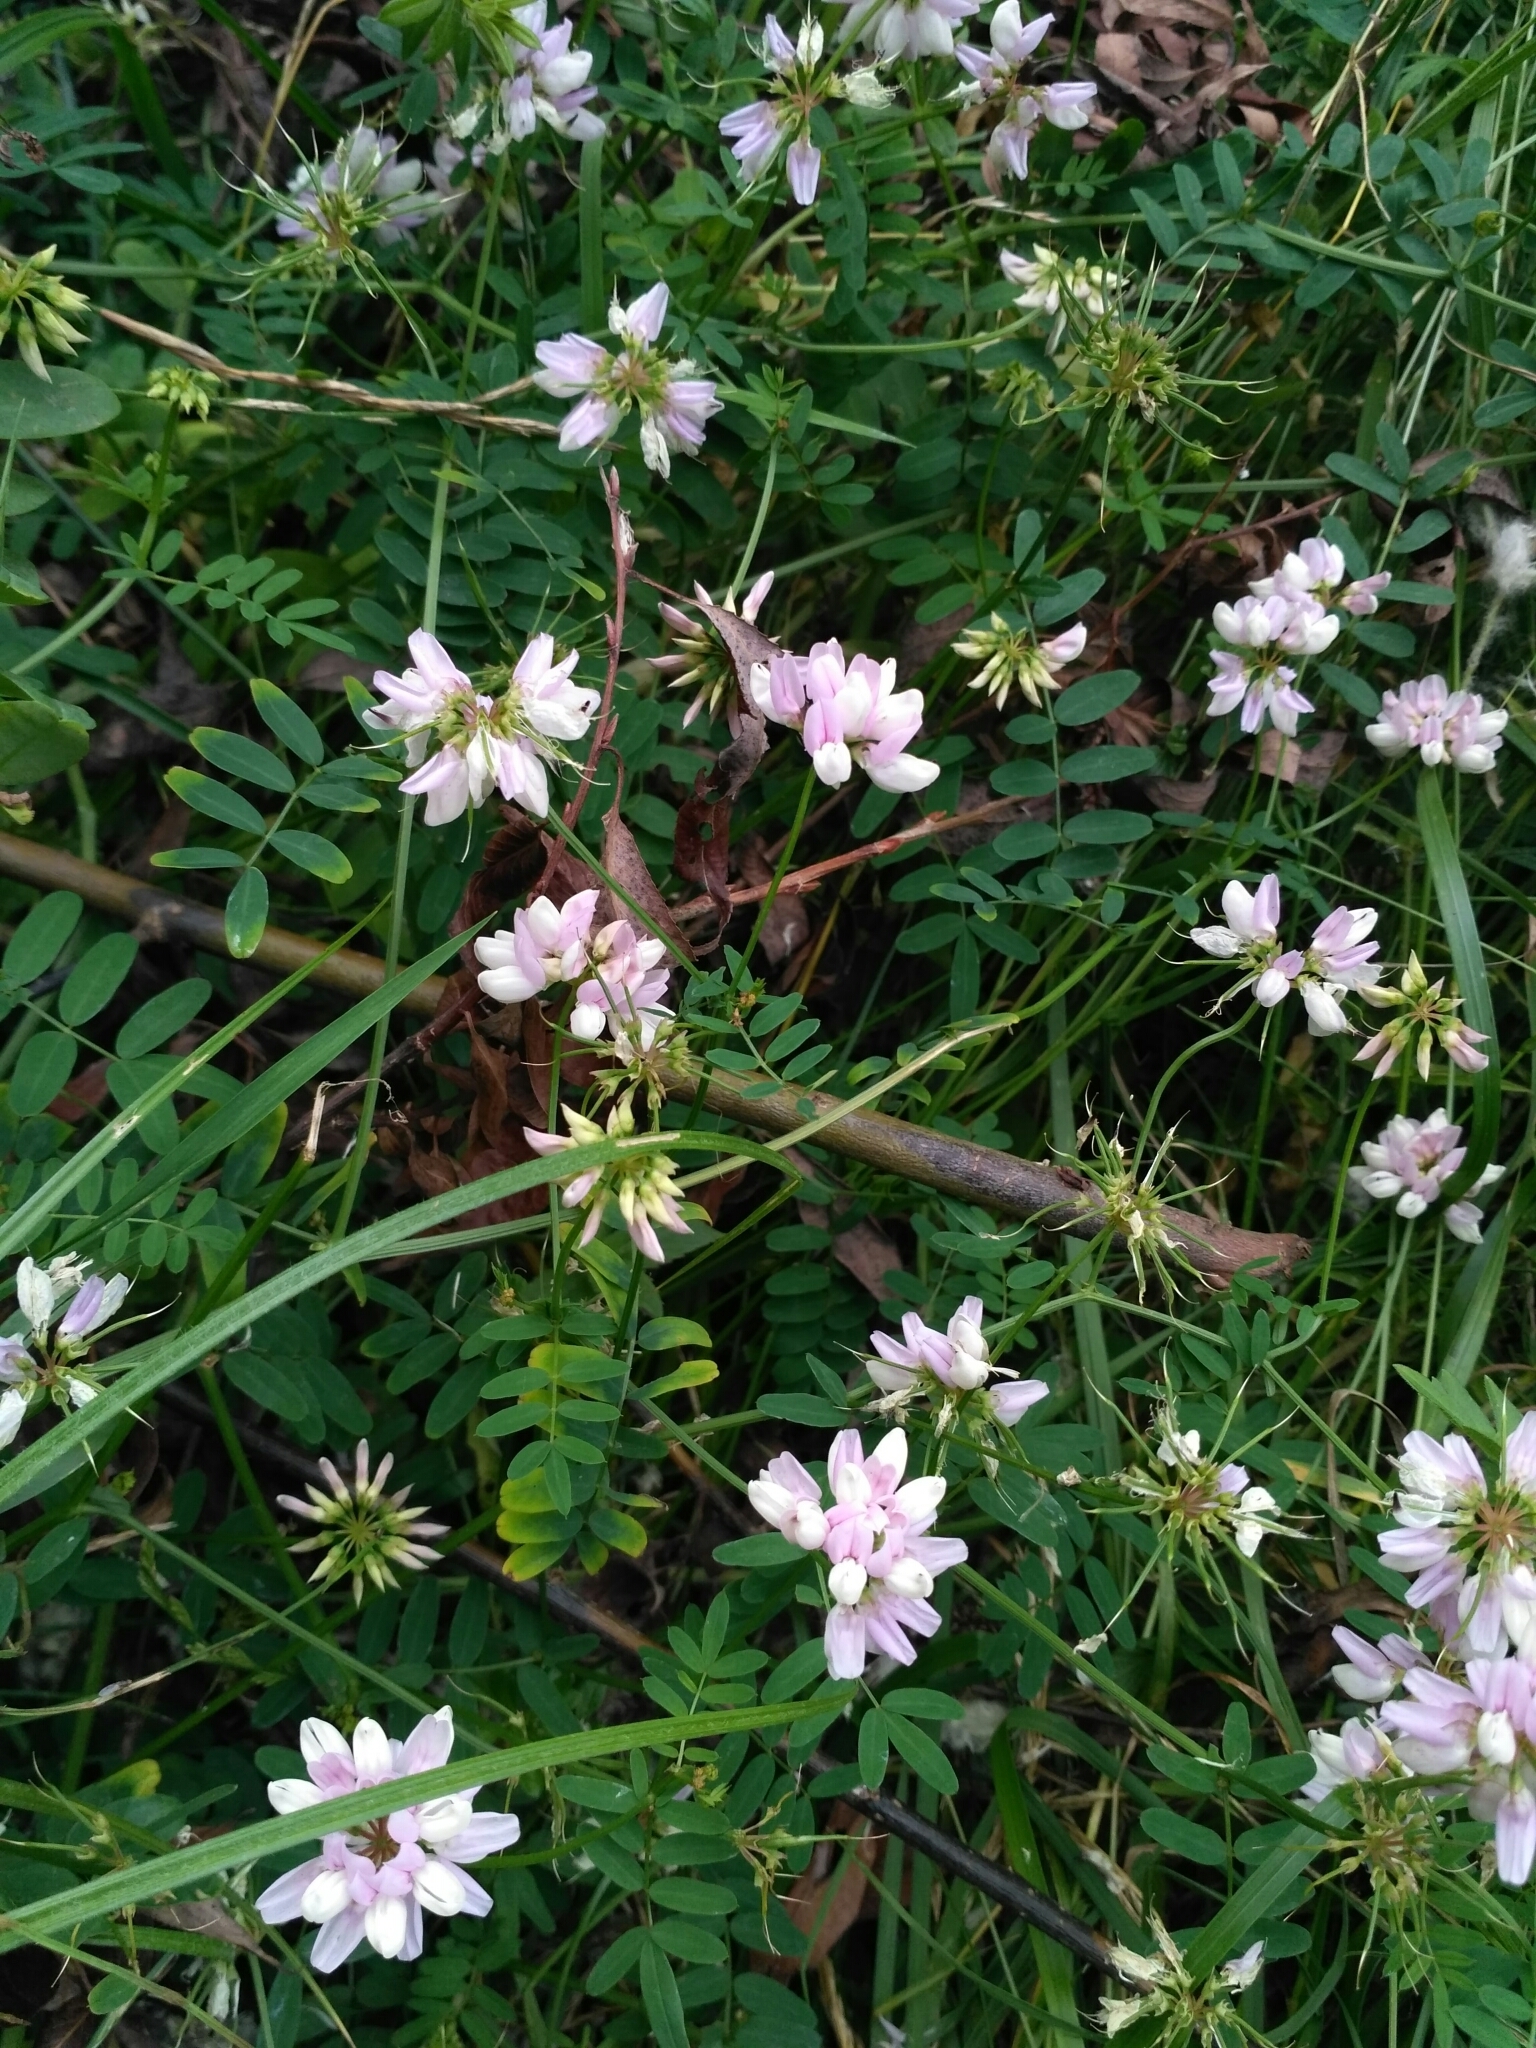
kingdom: Plantae
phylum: Tracheophyta
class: Magnoliopsida
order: Fabales
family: Fabaceae
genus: Coronilla
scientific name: Coronilla varia
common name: Crownvetch
